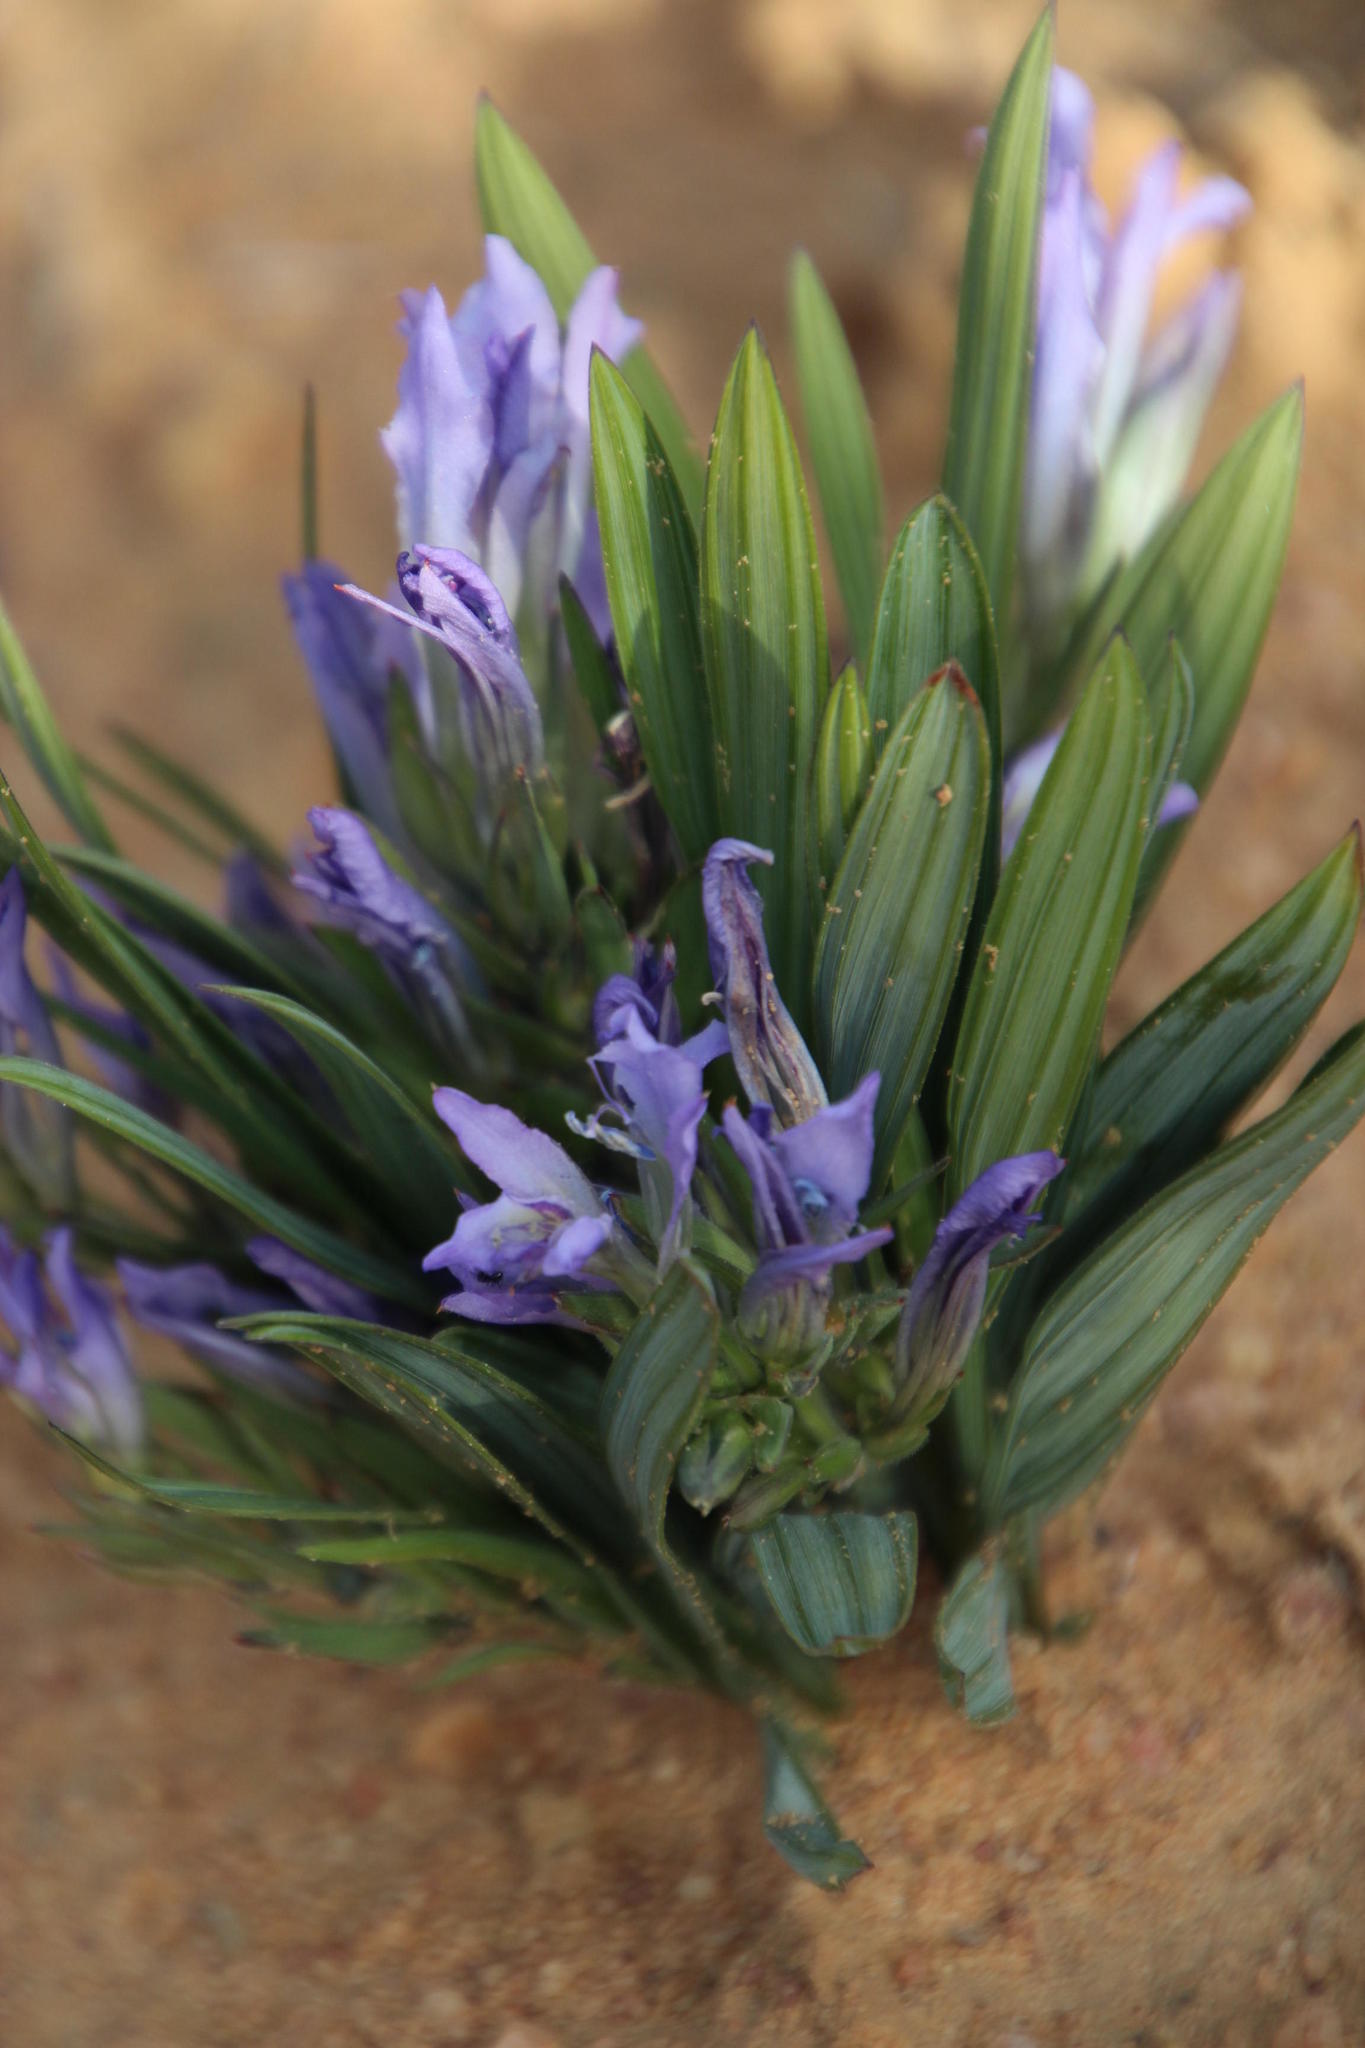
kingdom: Plantae
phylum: Tracheophyta
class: Liliopsida
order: Asparagales
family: Iridaceae
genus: Babiana
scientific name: Babiana sambucina
